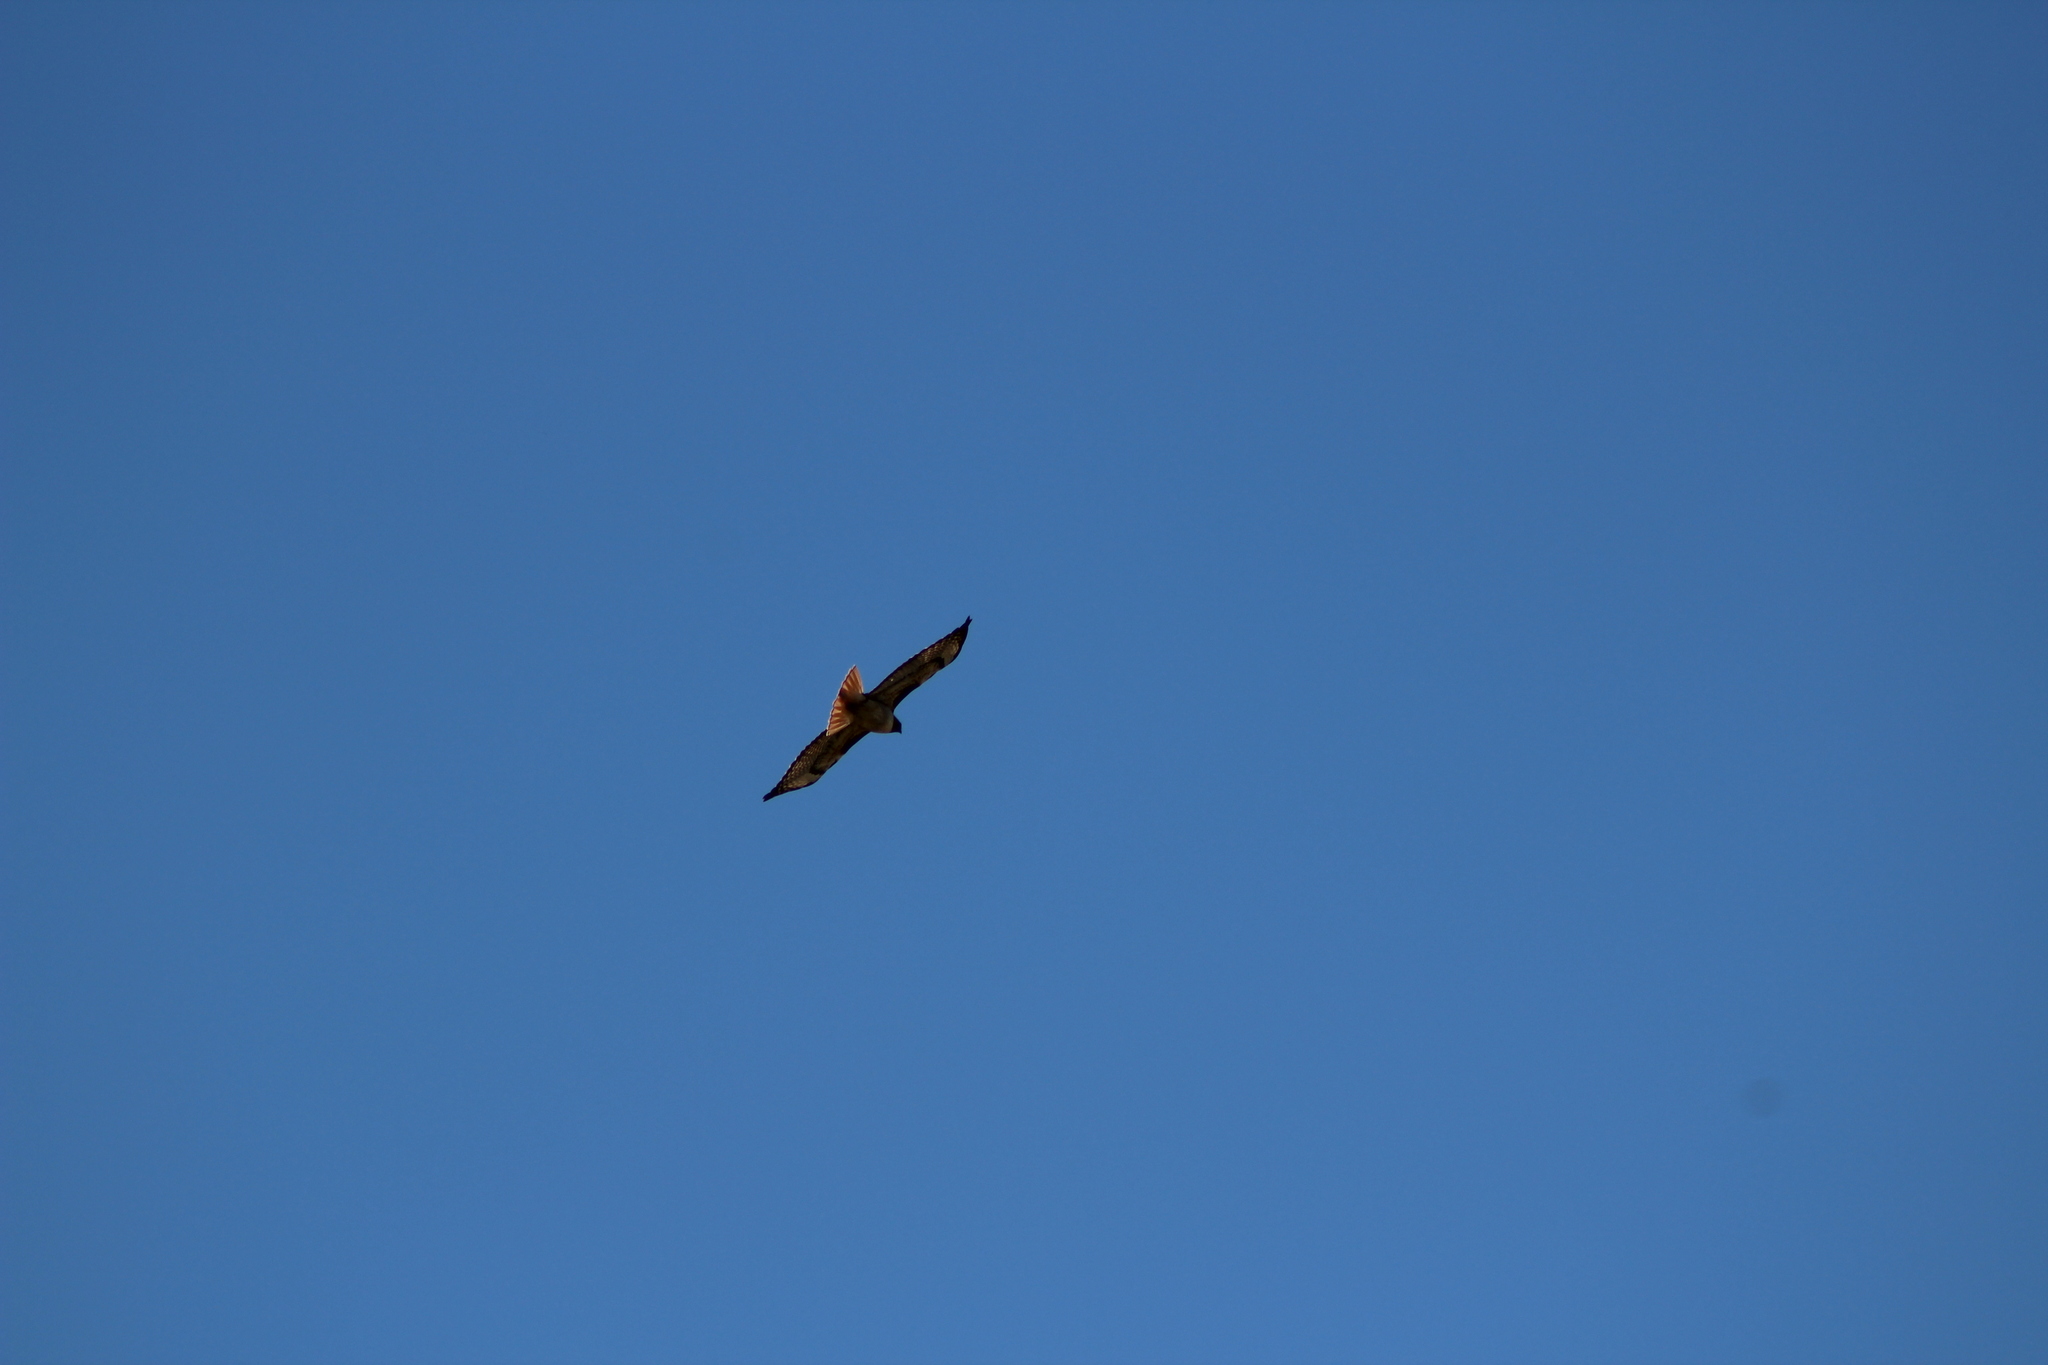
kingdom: Animalia
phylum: Chordata
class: Aves
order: Accipitriformes
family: Accipitridae
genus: Buteo
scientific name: Buteo jamaicensis
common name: Red-tailed hawk
